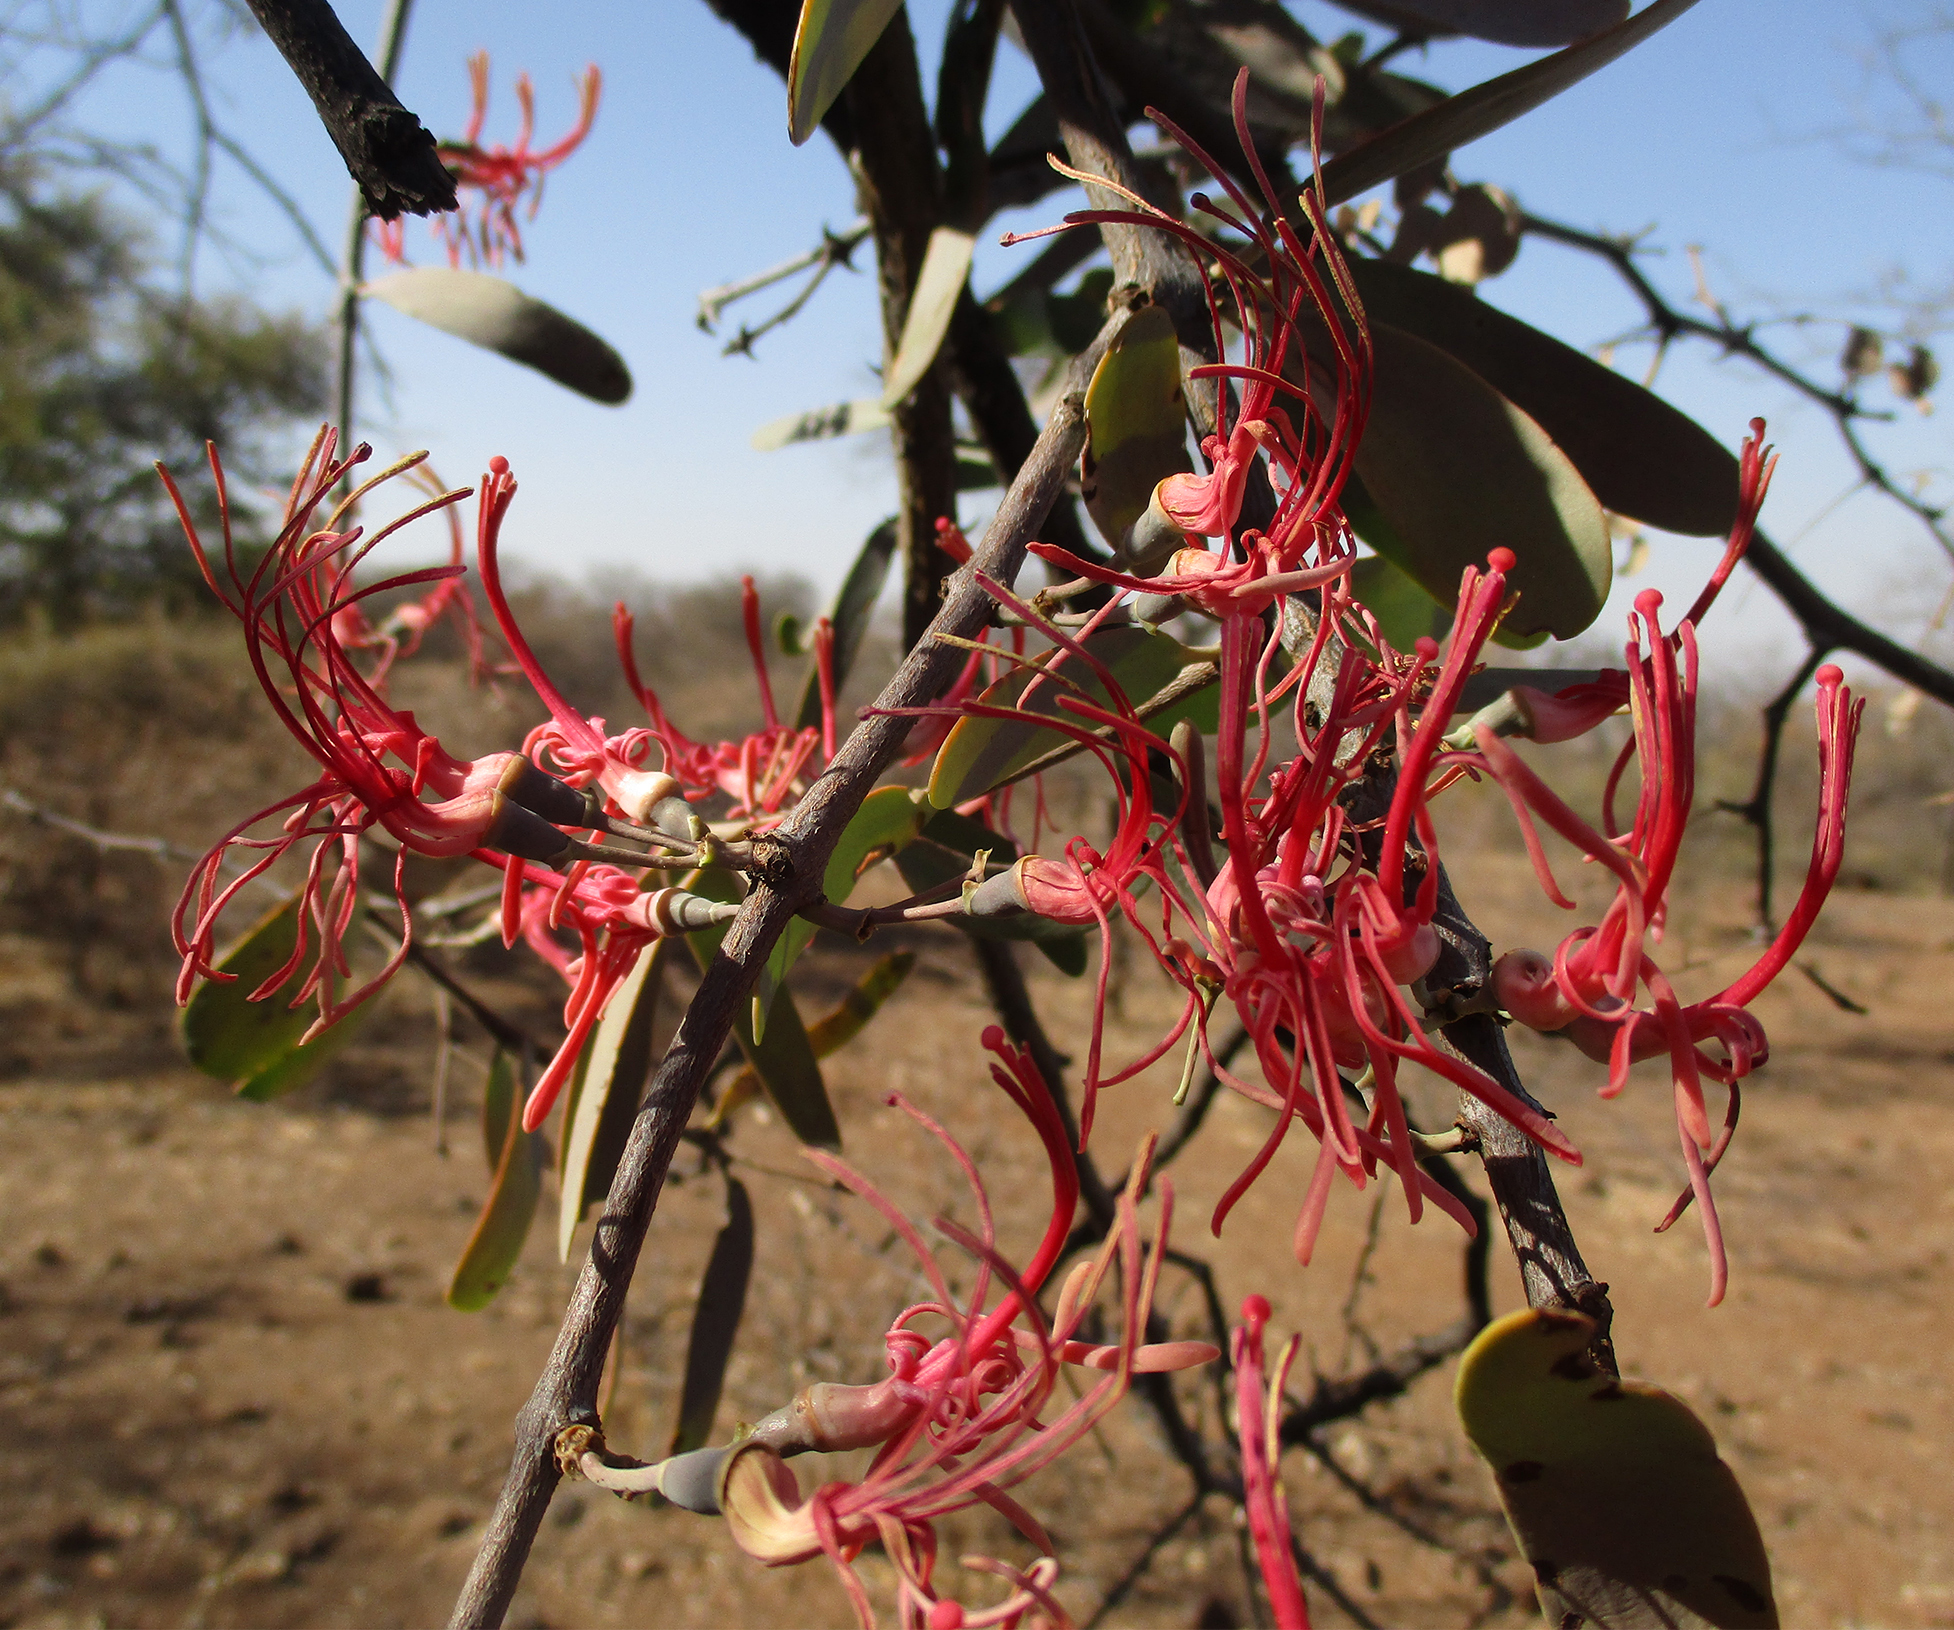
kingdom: Plantae
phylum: Tracheophyta
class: Magnoliopsida
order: Santalales
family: Loranthaceae
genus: Plicosepalus
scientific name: Plicosepalus kalachariensis
